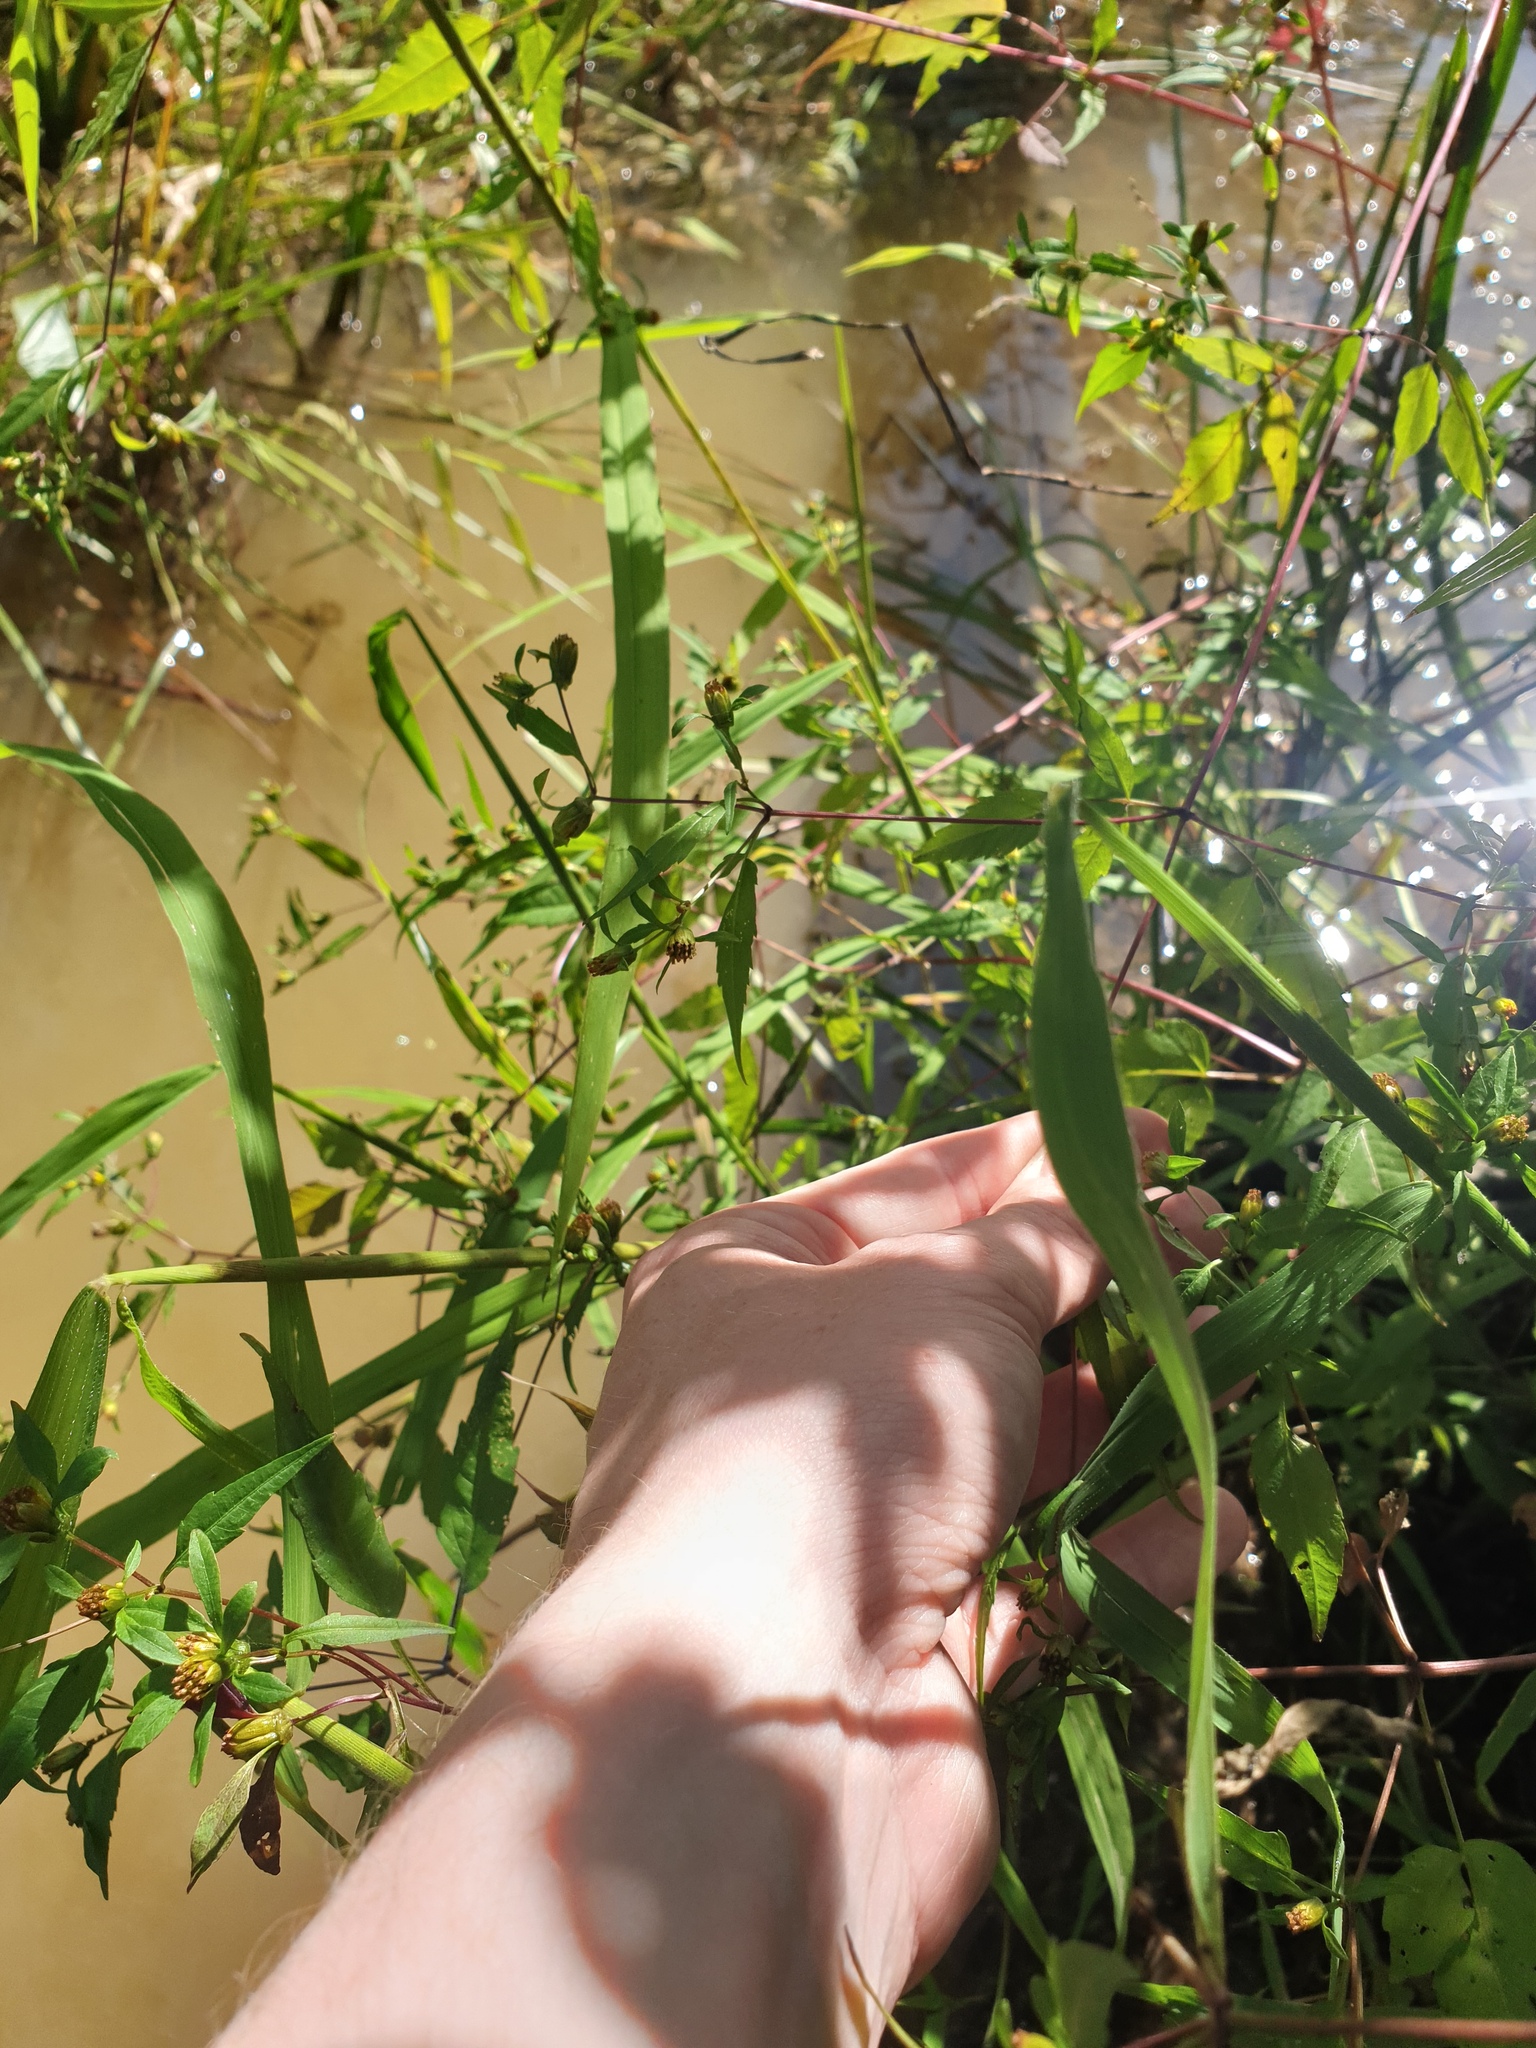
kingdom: Plantae
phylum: Tracheophyta
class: Magnoliopsida
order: Asterales
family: Asteraceae
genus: Bidens
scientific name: Bidens discoidea
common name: Discoide beggarticks
